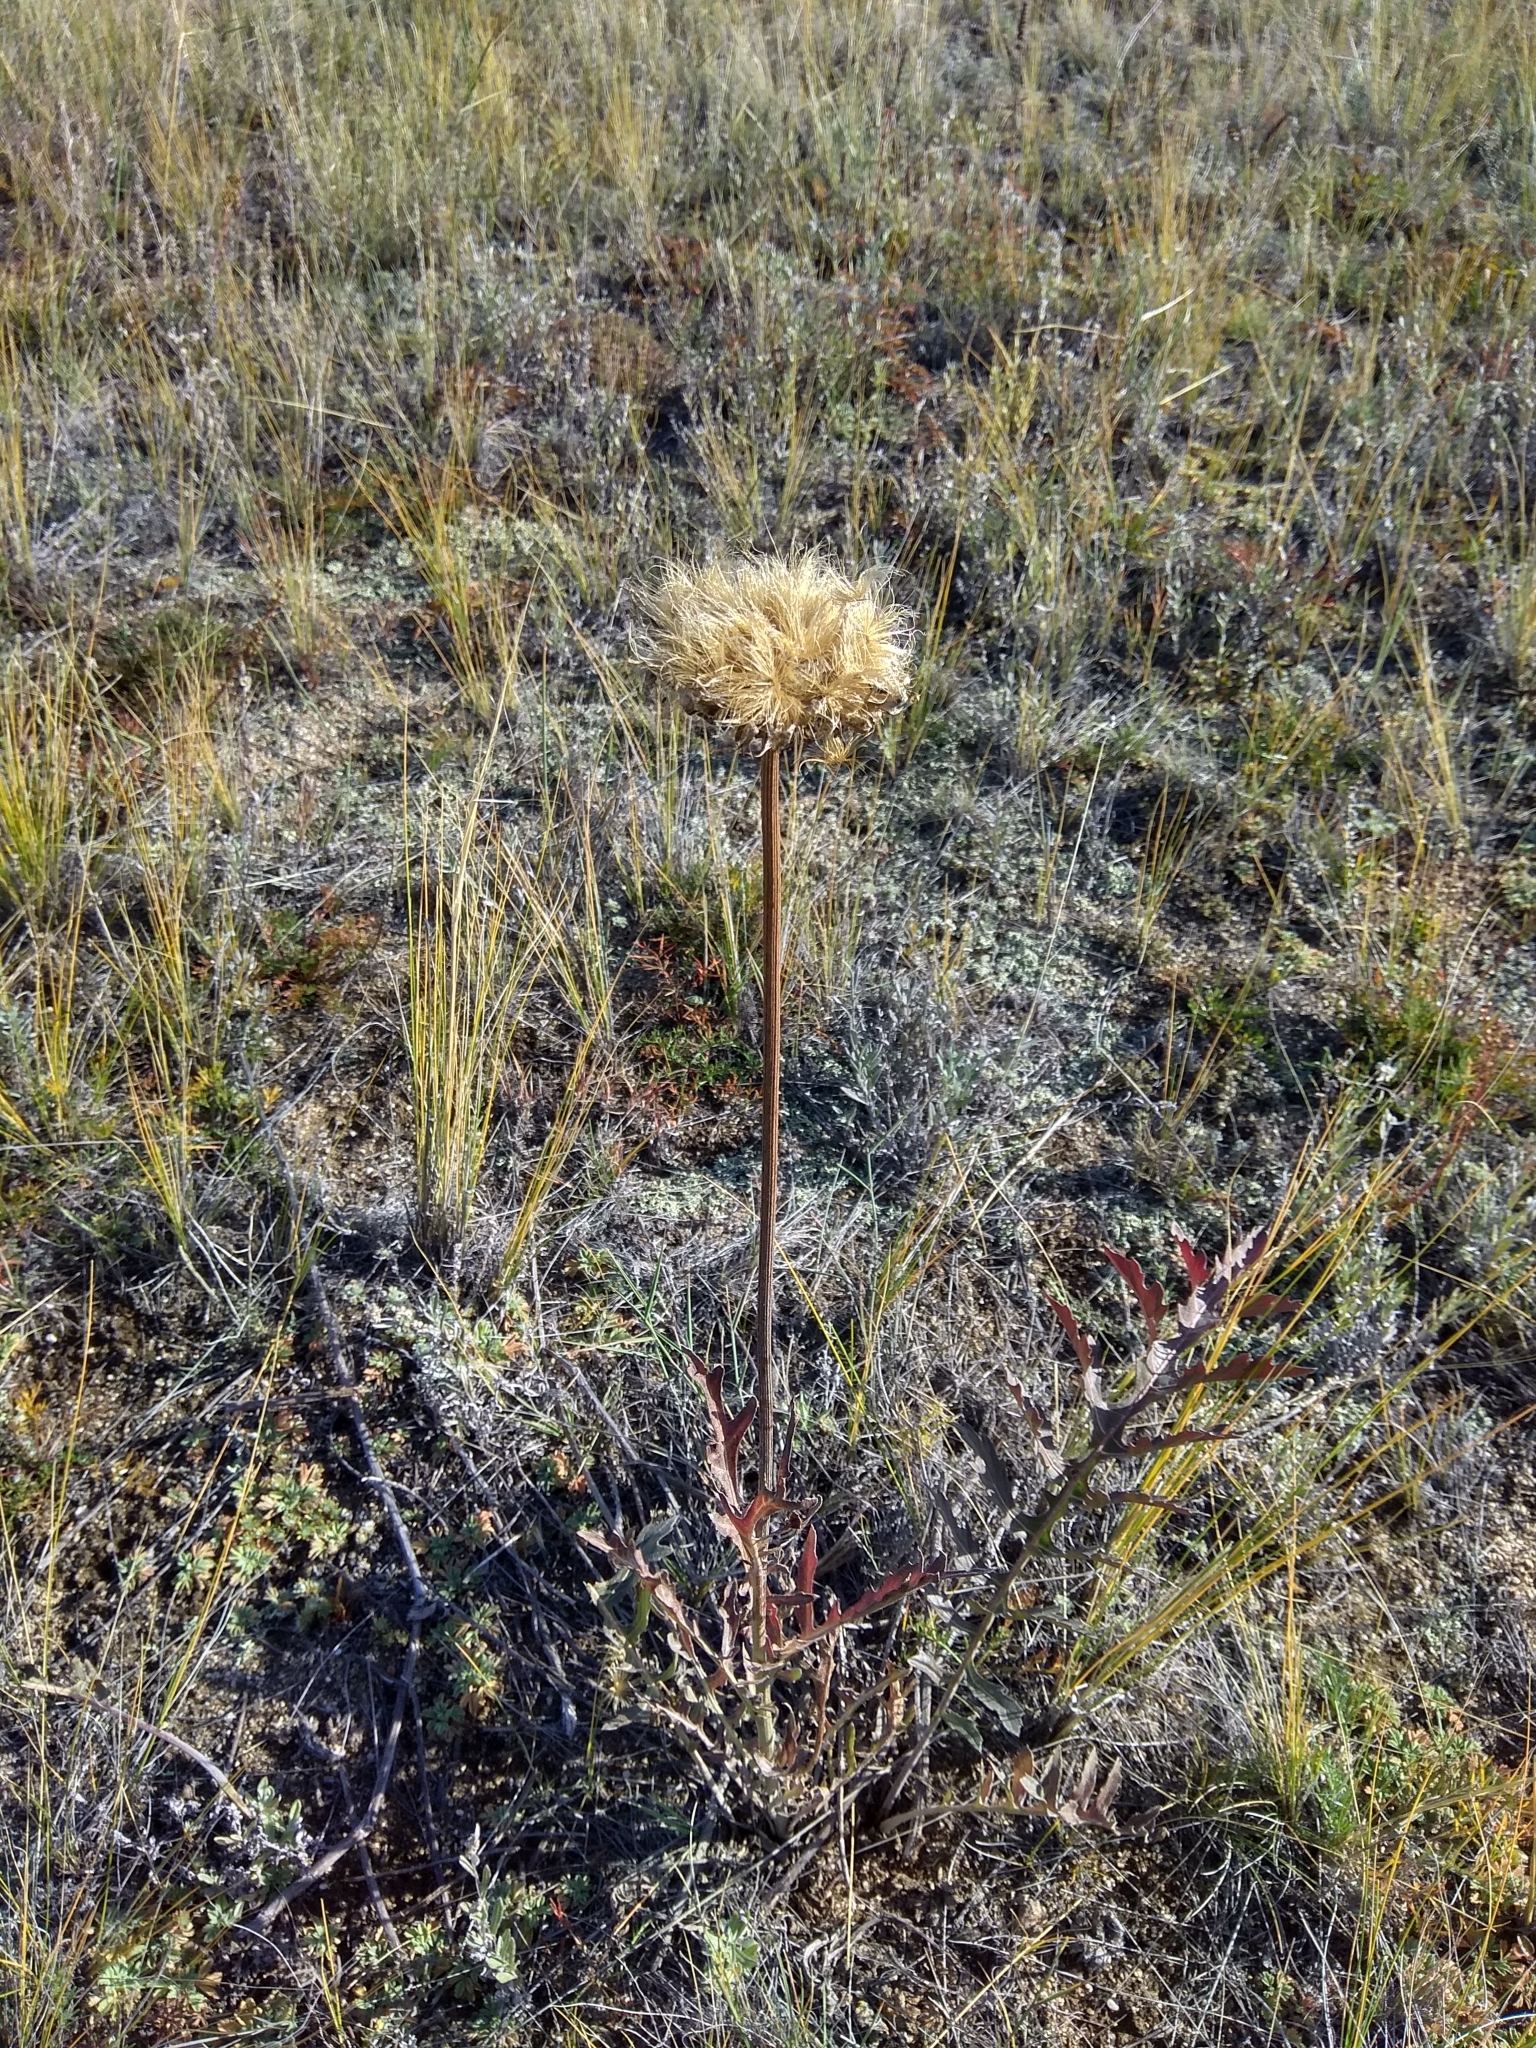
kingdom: Plantae
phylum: Tracheophyta
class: Magnoliopsida
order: Asterales
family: Asteraceae
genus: Leuzea
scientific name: Leuzea uniflora
